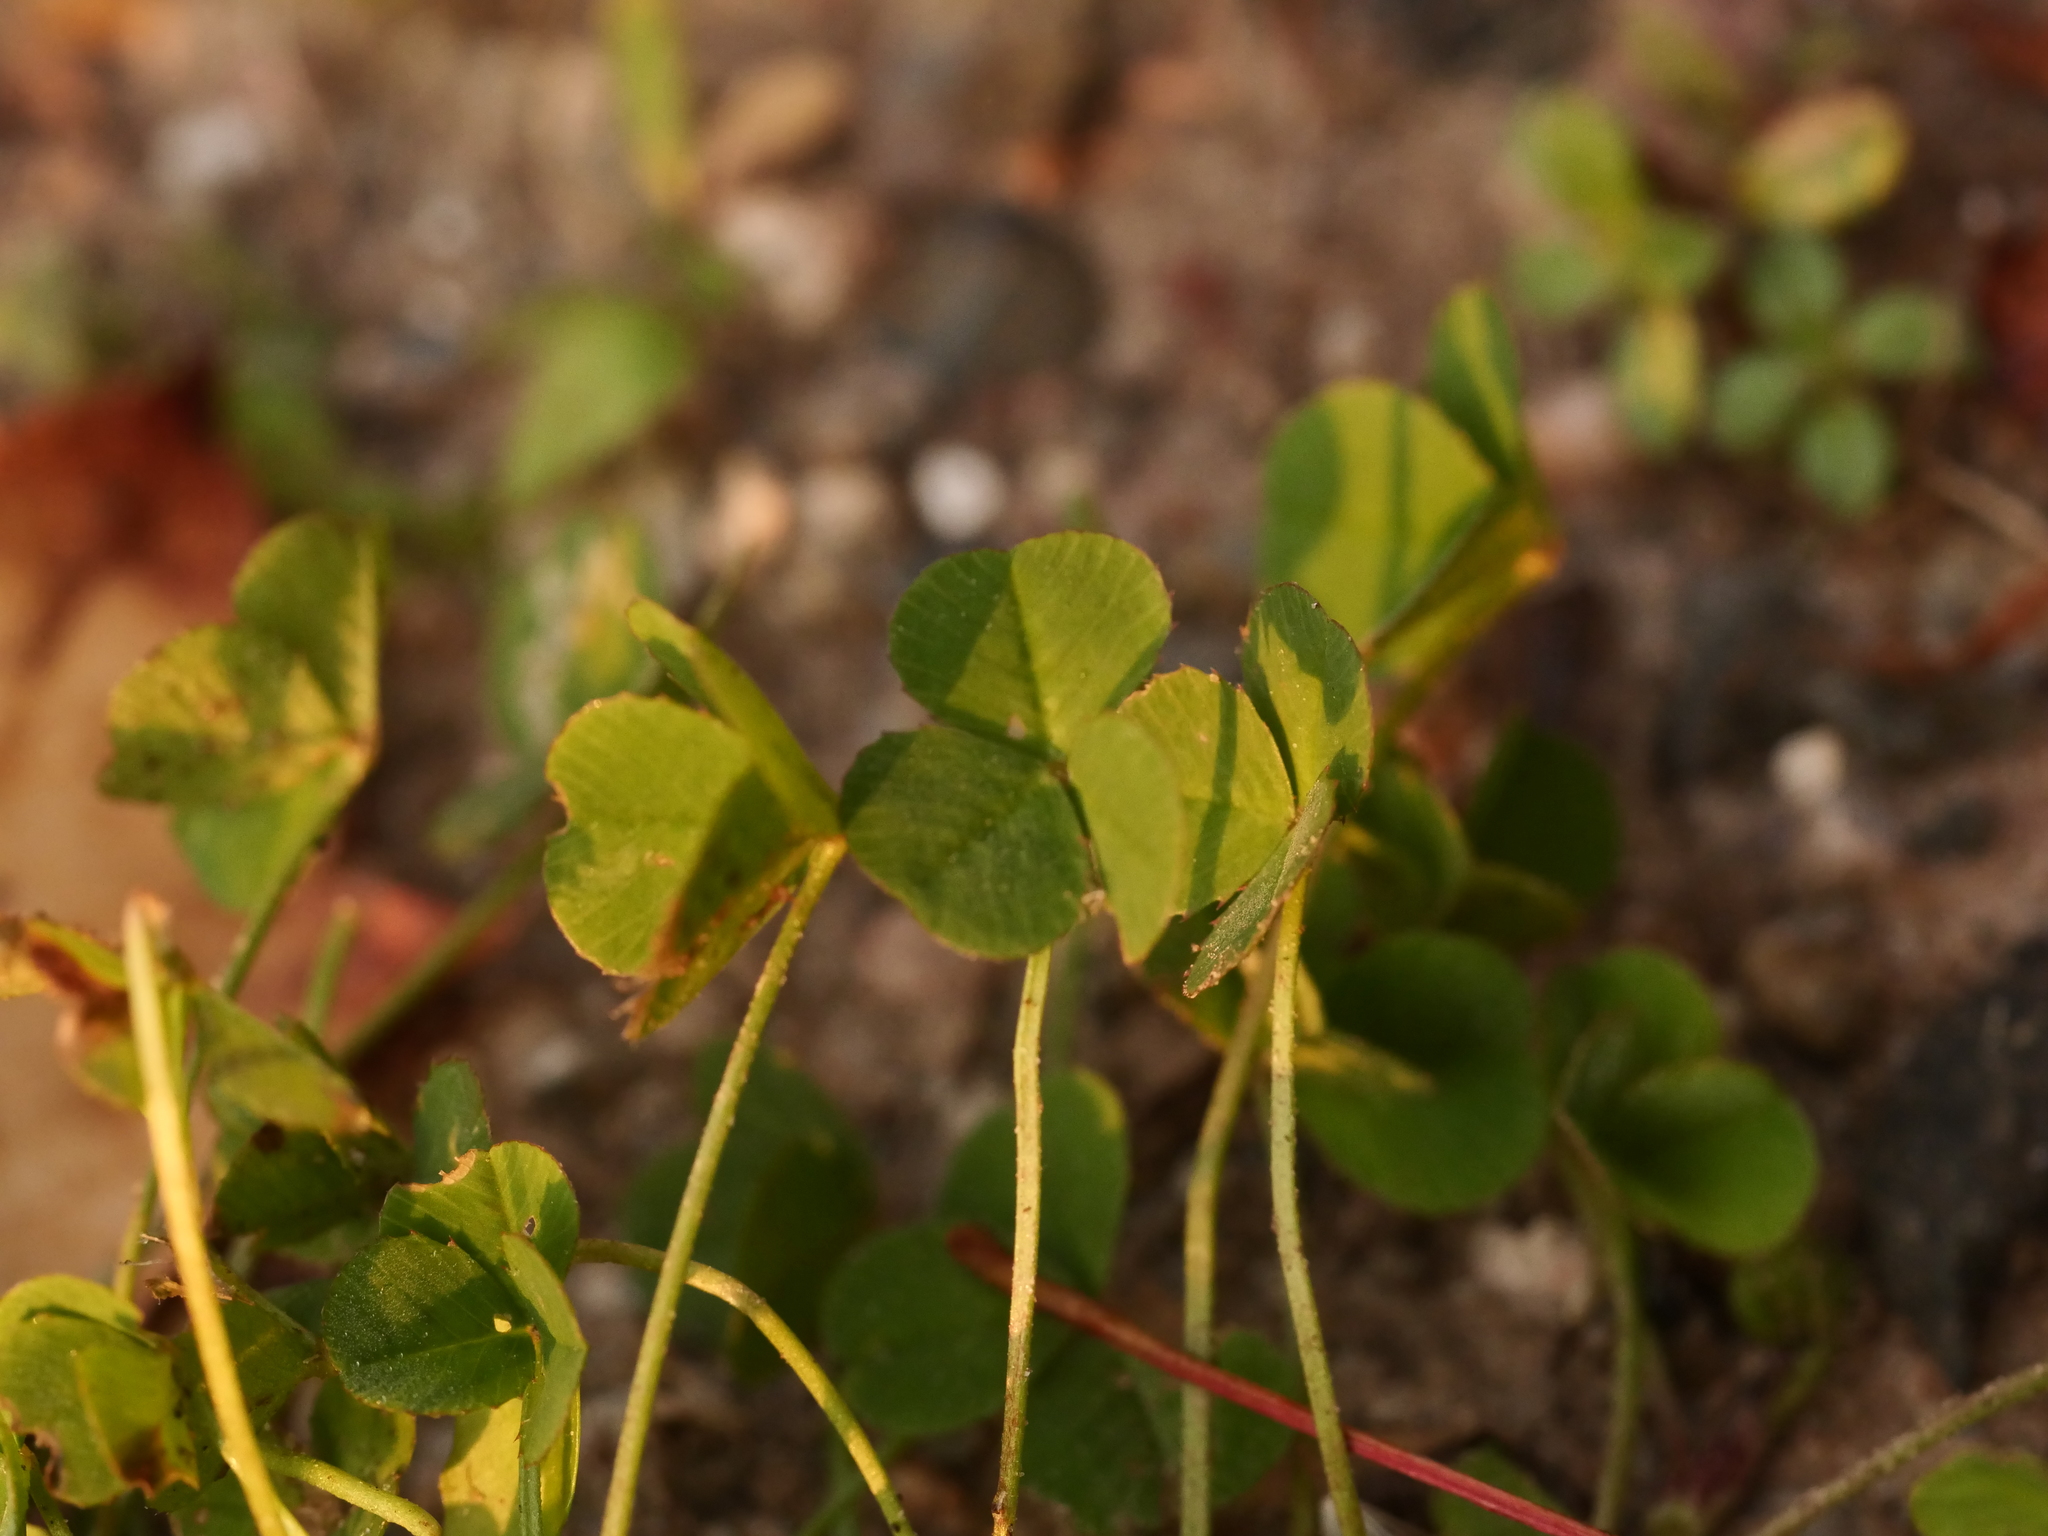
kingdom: Plantae
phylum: Tracheophyta
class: Magnoliopsida
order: Fabales
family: Fabaceae
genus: Trifolium
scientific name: Trifolium repens
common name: White clover
